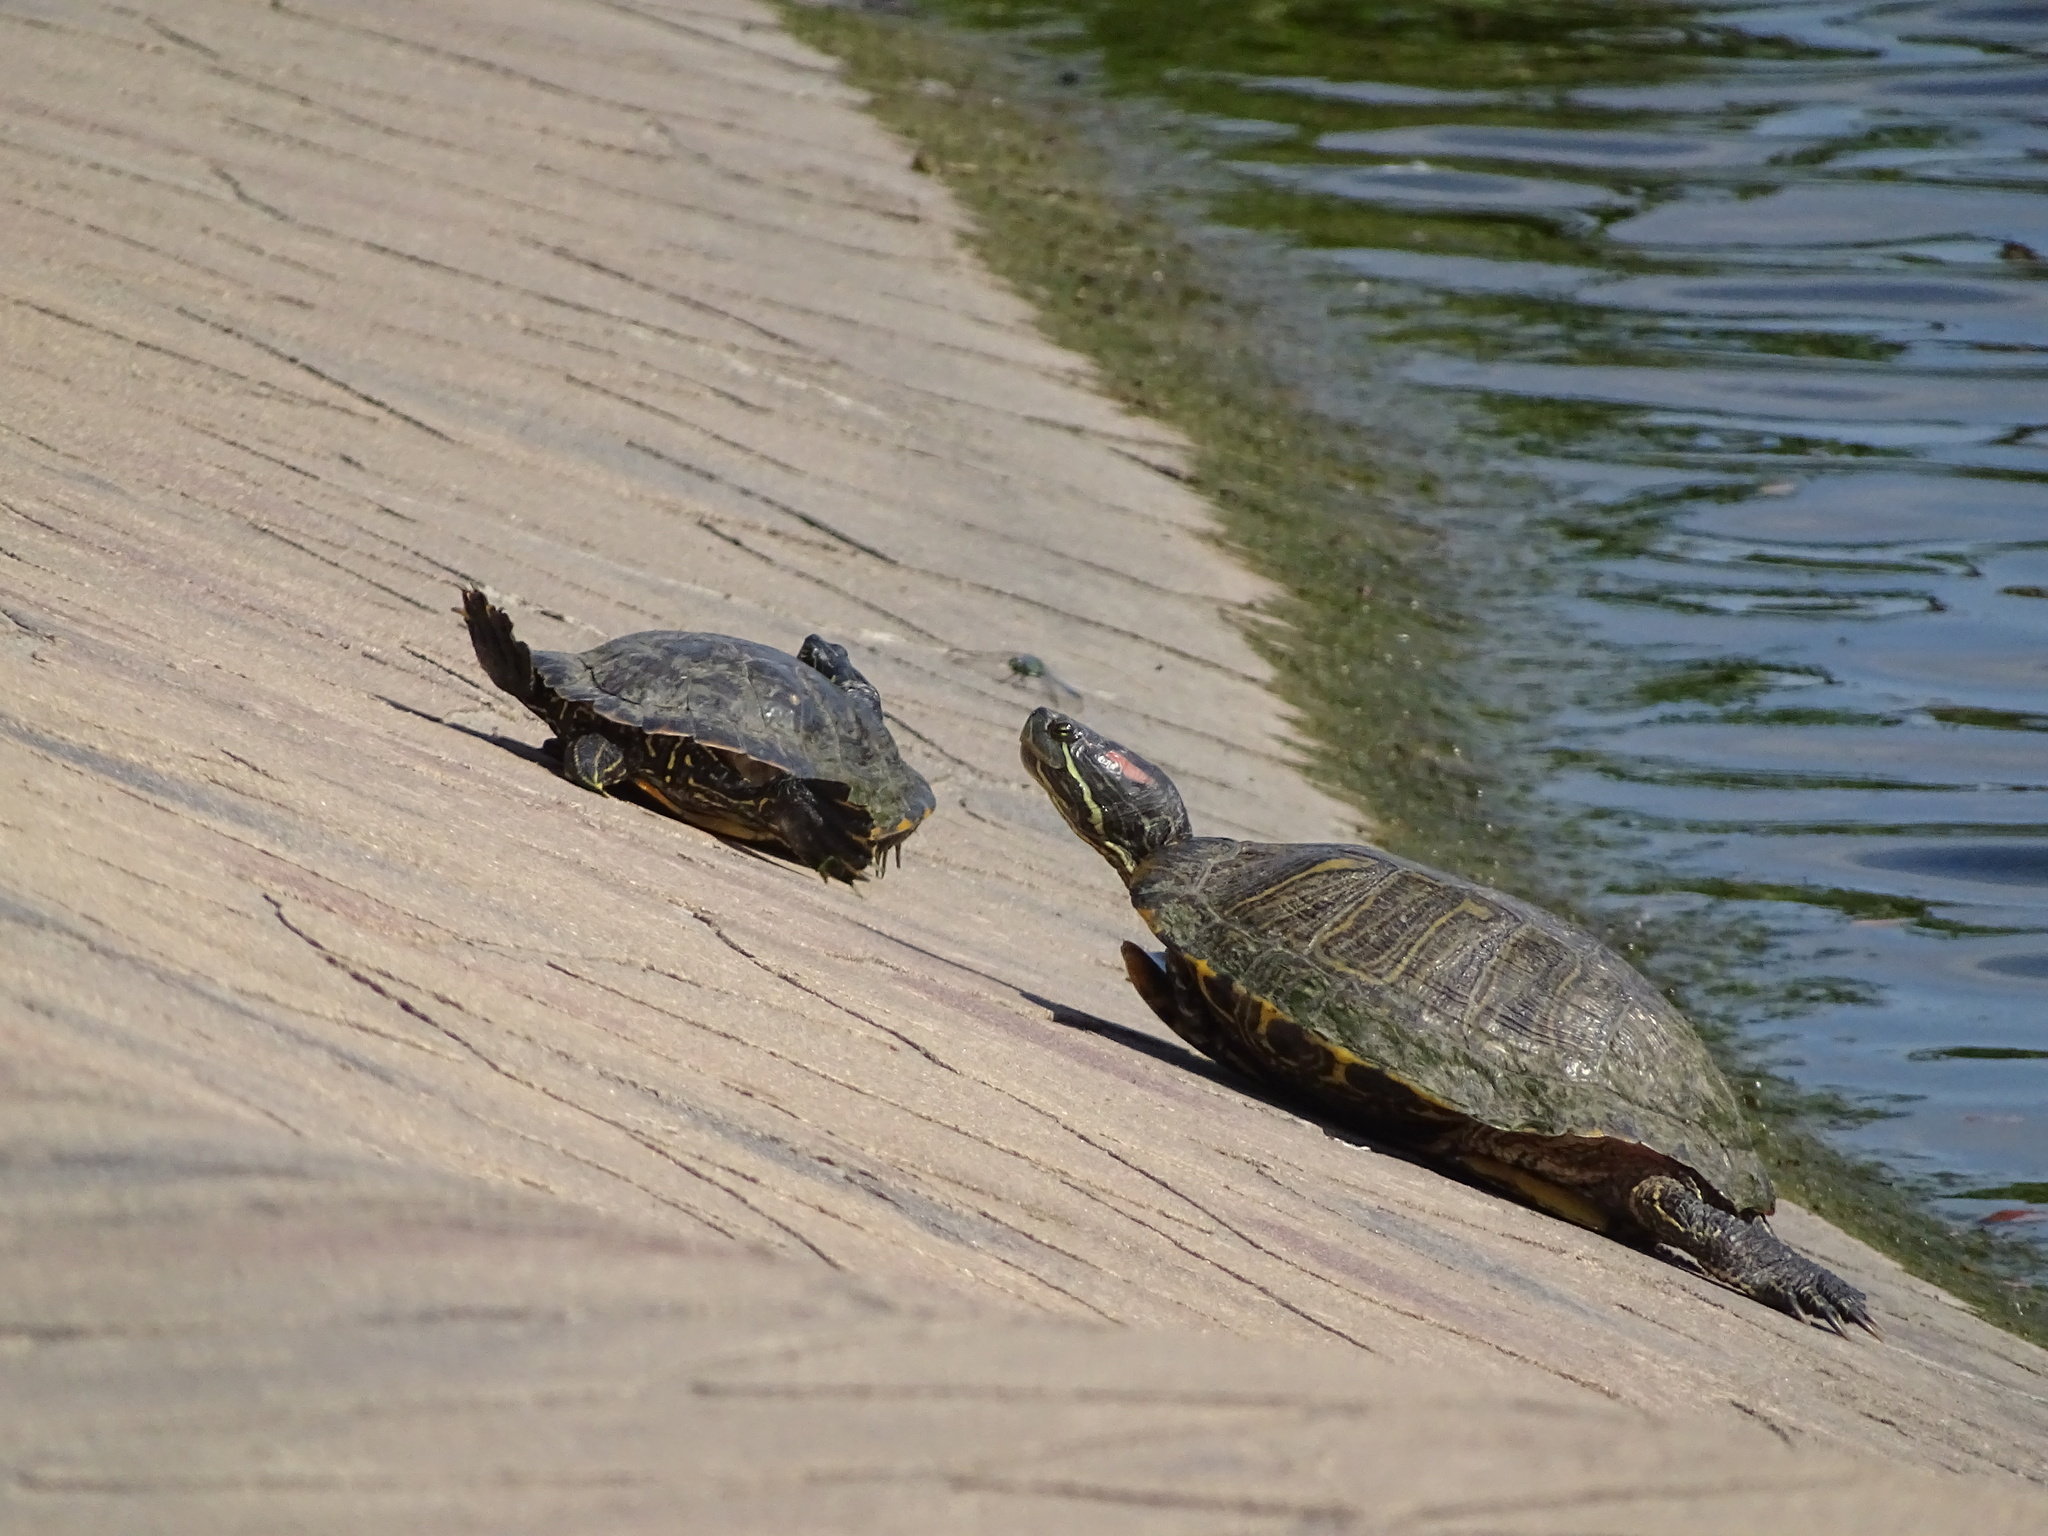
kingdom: Animalia
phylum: Chordata
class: Testudines
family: Emydidae
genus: Trachemys
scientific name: Trachemys scripta
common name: Slider
